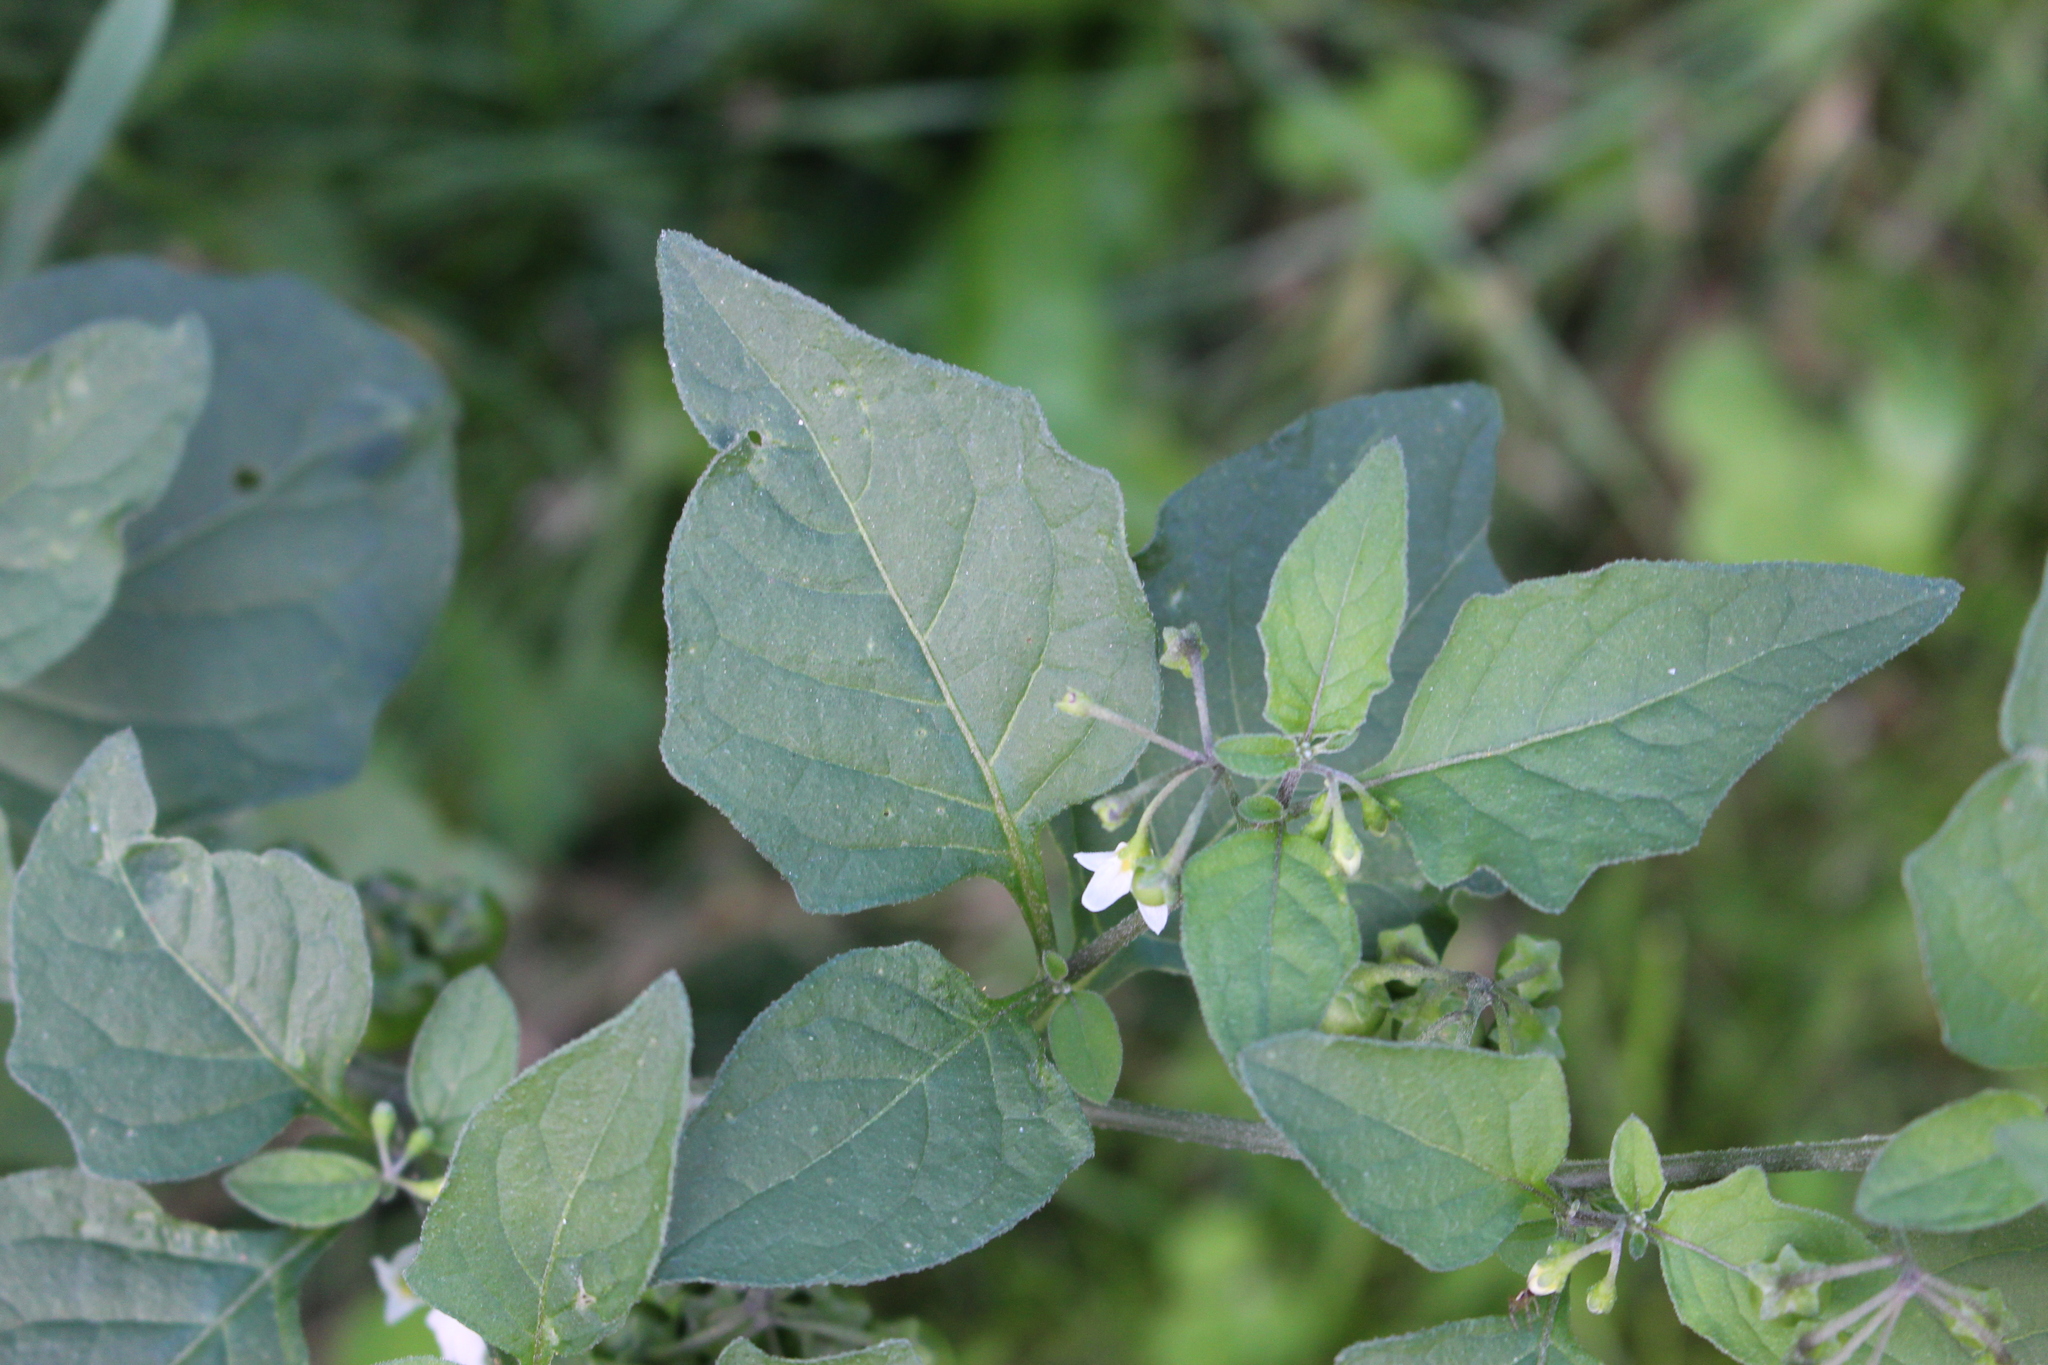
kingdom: Plantae
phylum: Tracheophyta
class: Magnoliopsida
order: Solanales
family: Solanaceae
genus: Solanum
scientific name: Solanum nigrum
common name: Black nightshade
